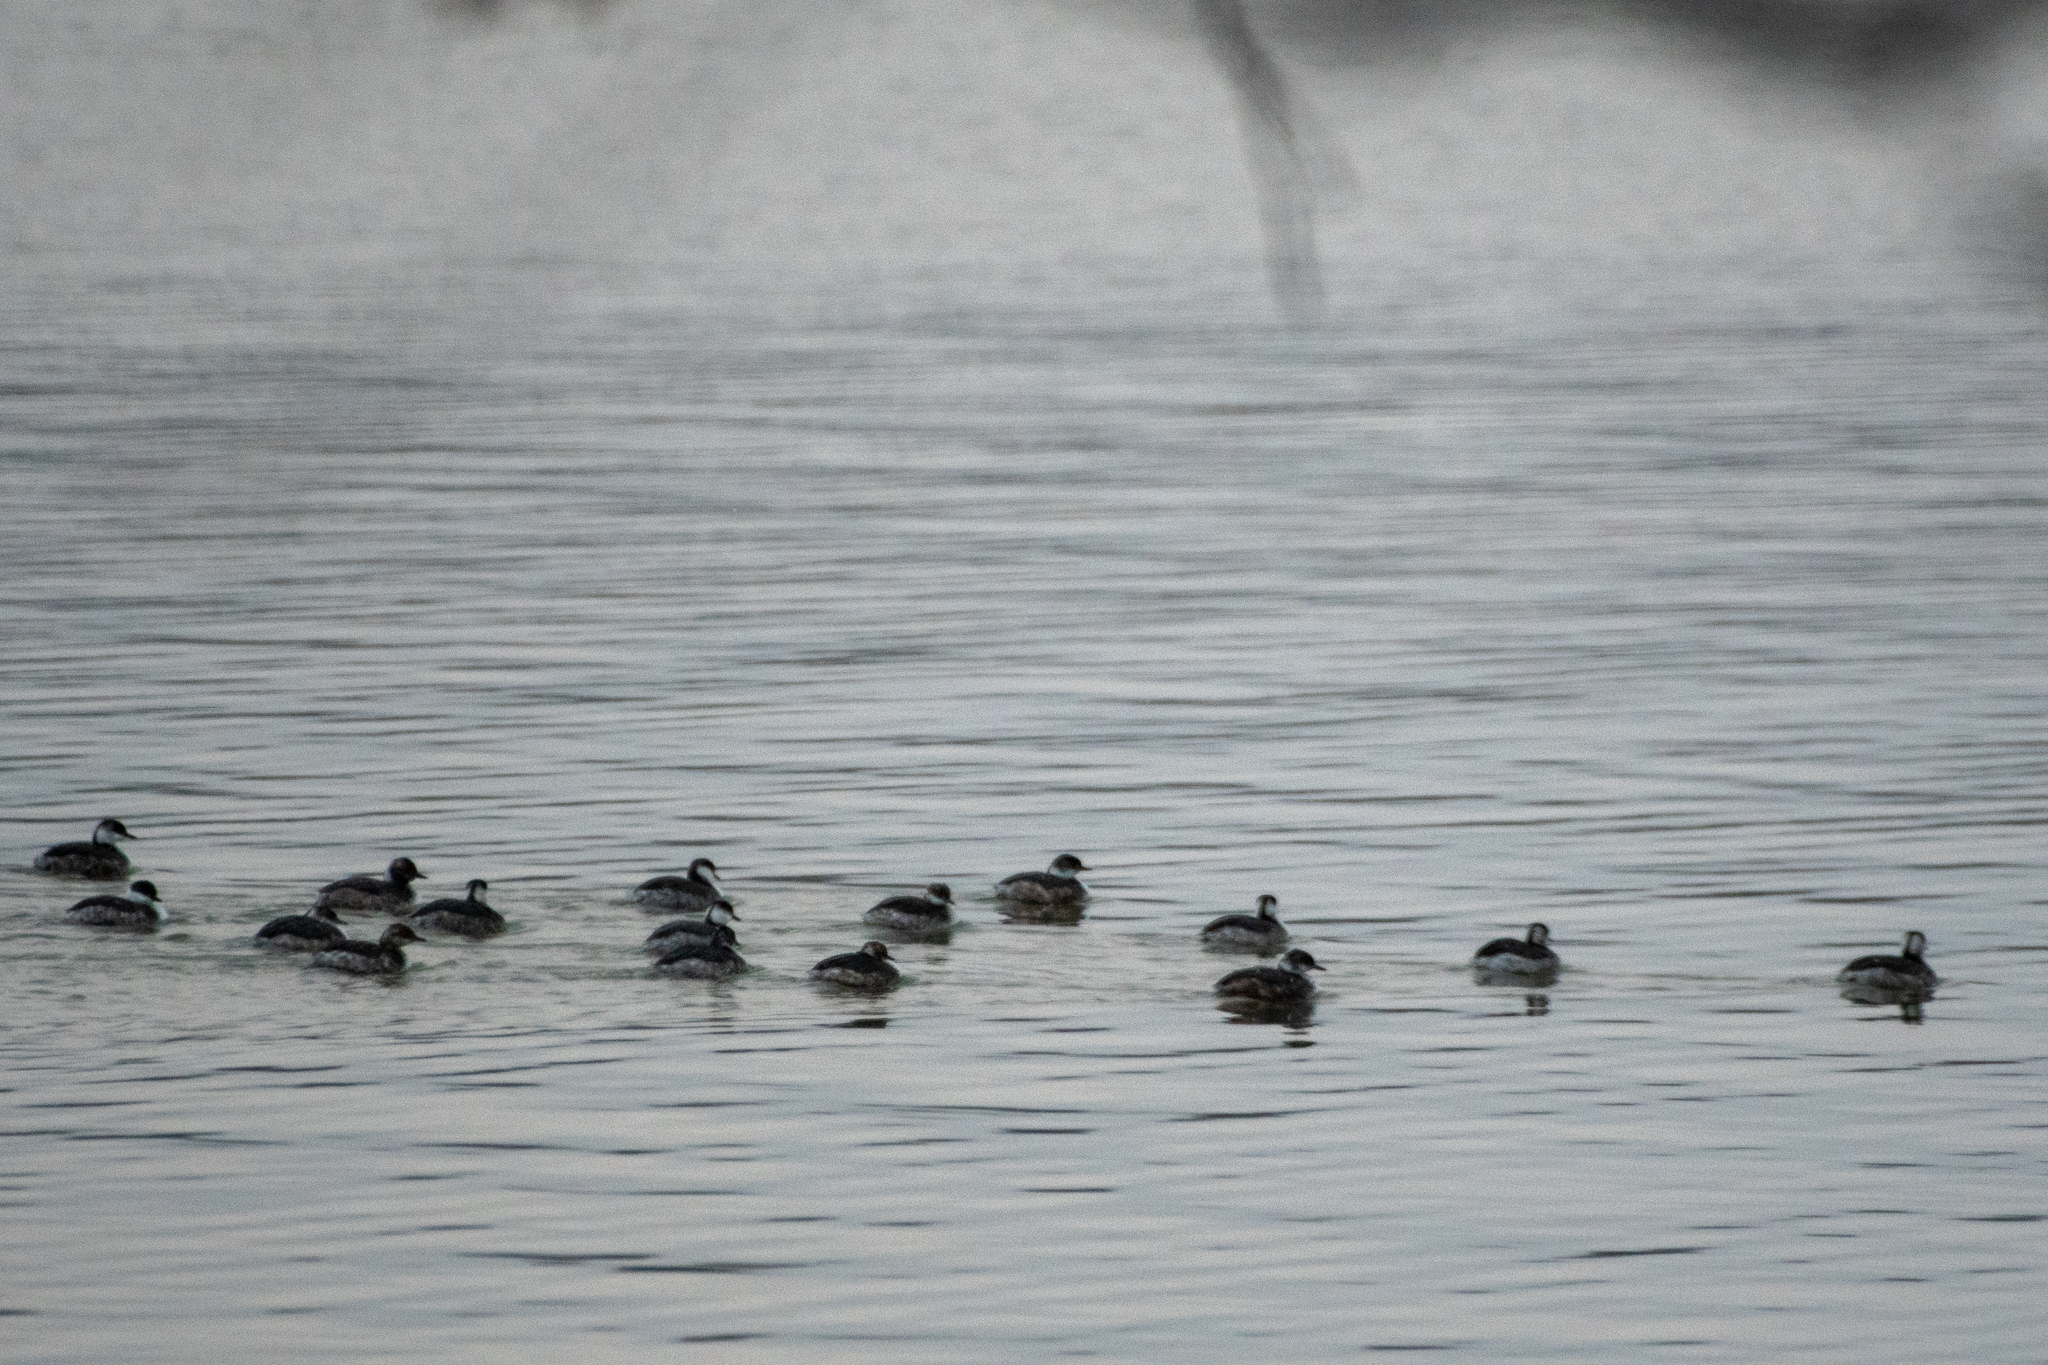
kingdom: Animalia
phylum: Chordata
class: Aves
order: Podicipediformes
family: Podicipedidae
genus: Podiceps
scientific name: Podiceps auritus
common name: Horned grebe
